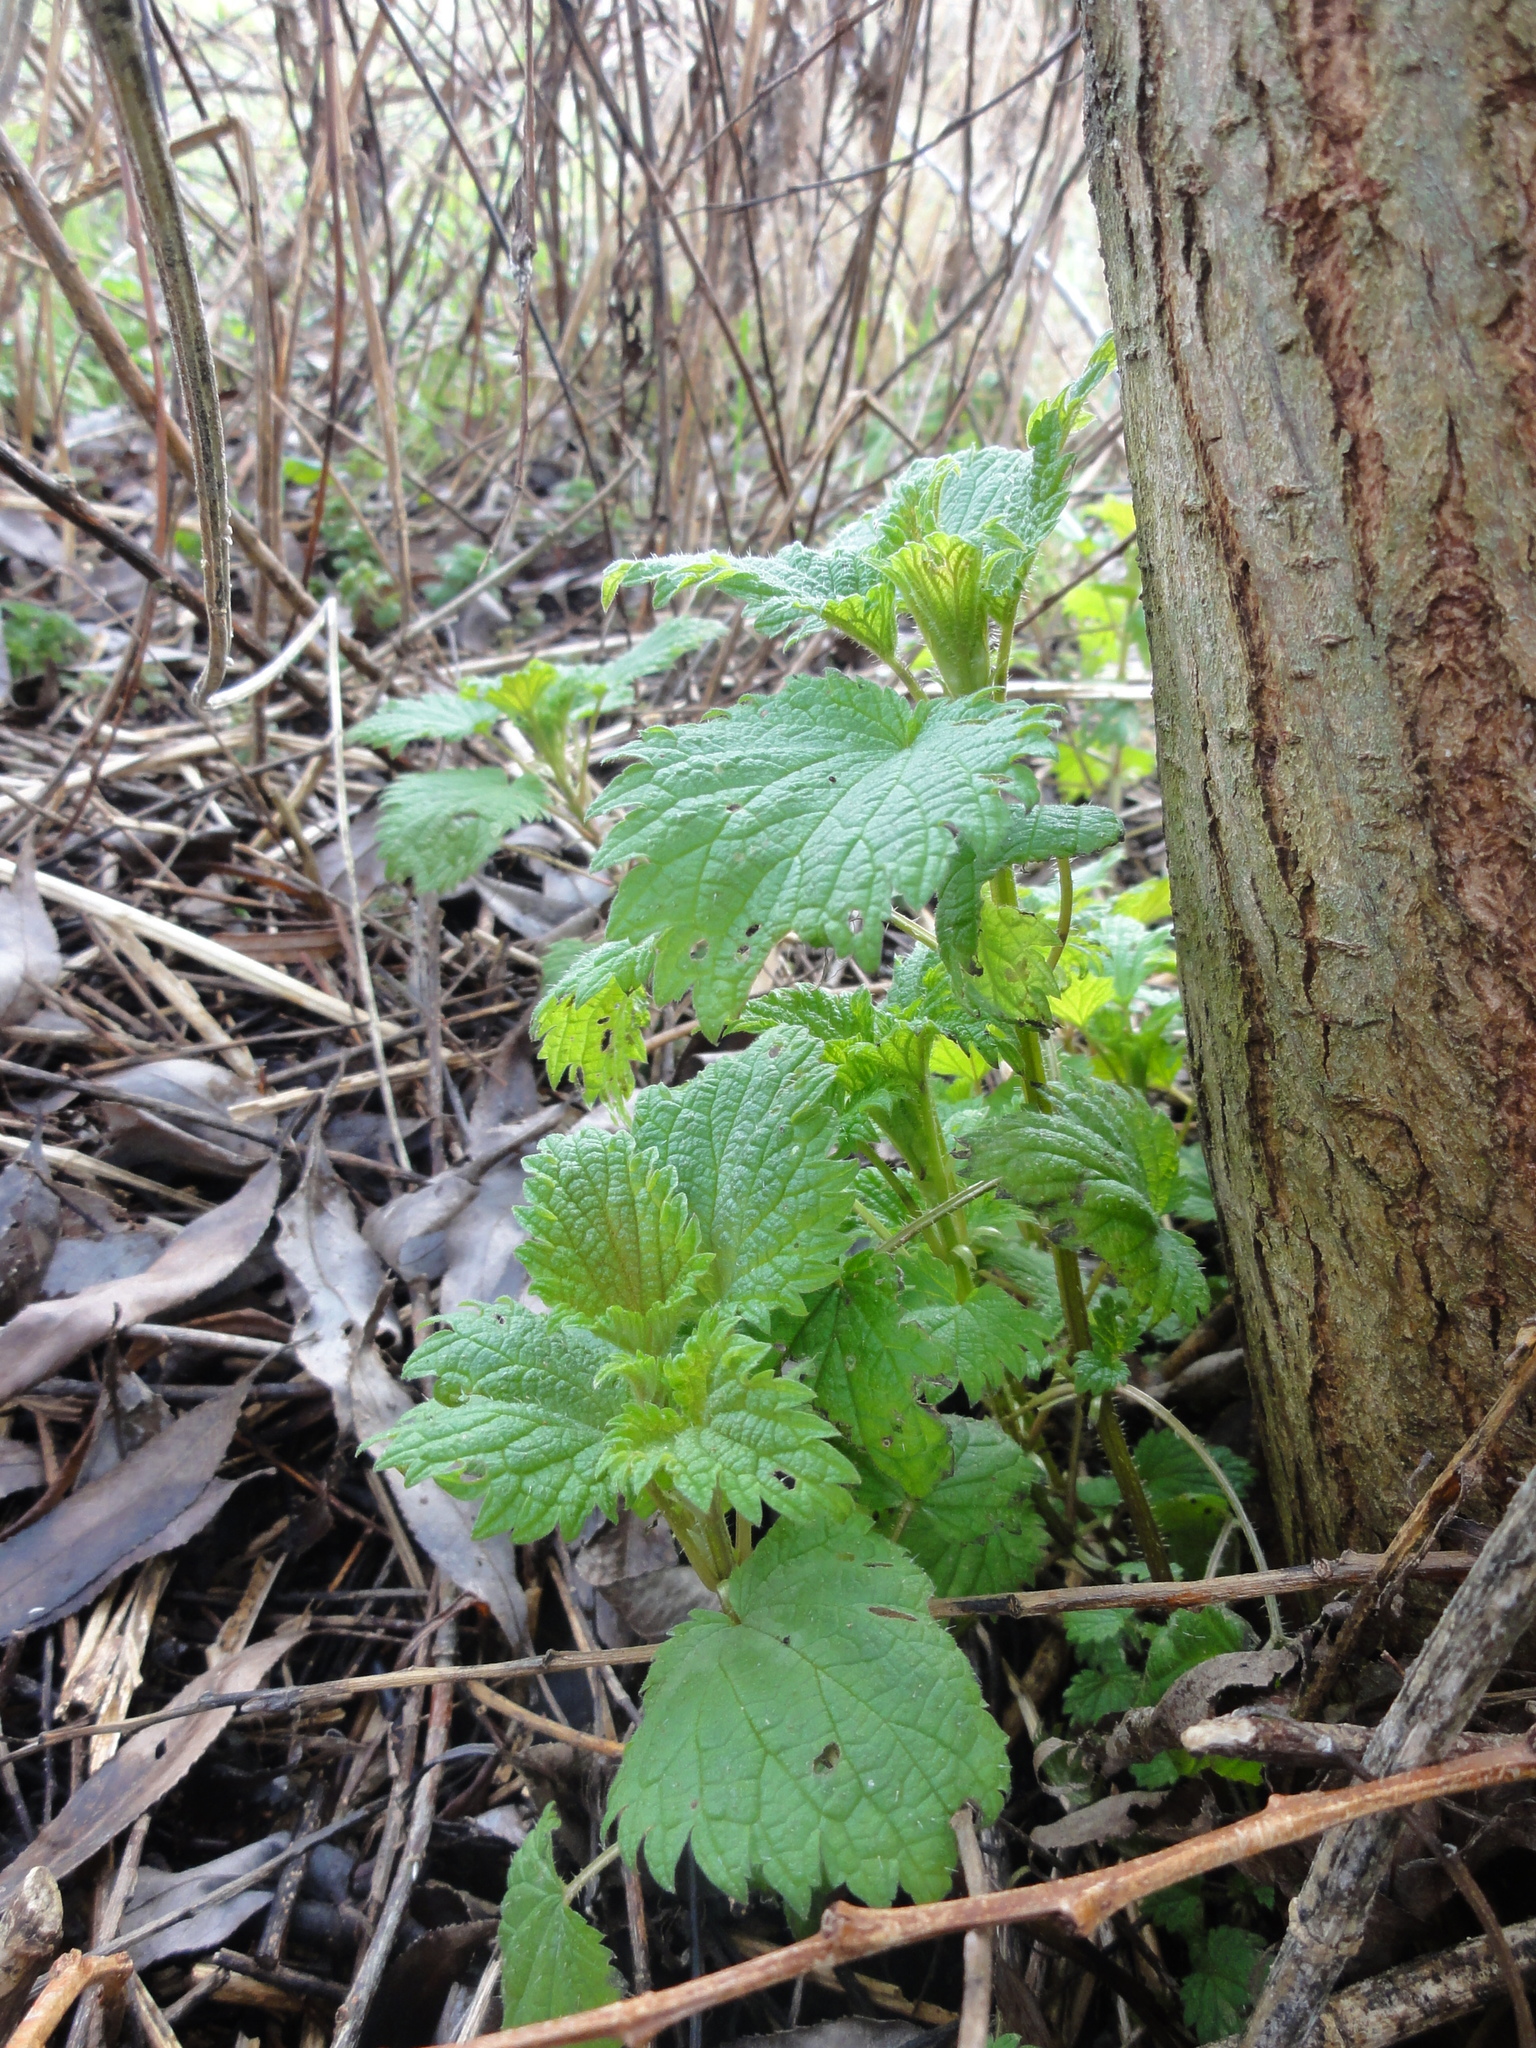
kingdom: Plantae
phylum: Tracheophyta
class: Magnoliopsida
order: Rosales
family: Urticaceae
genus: Urtica
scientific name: Urtica dioica
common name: Common nettle
